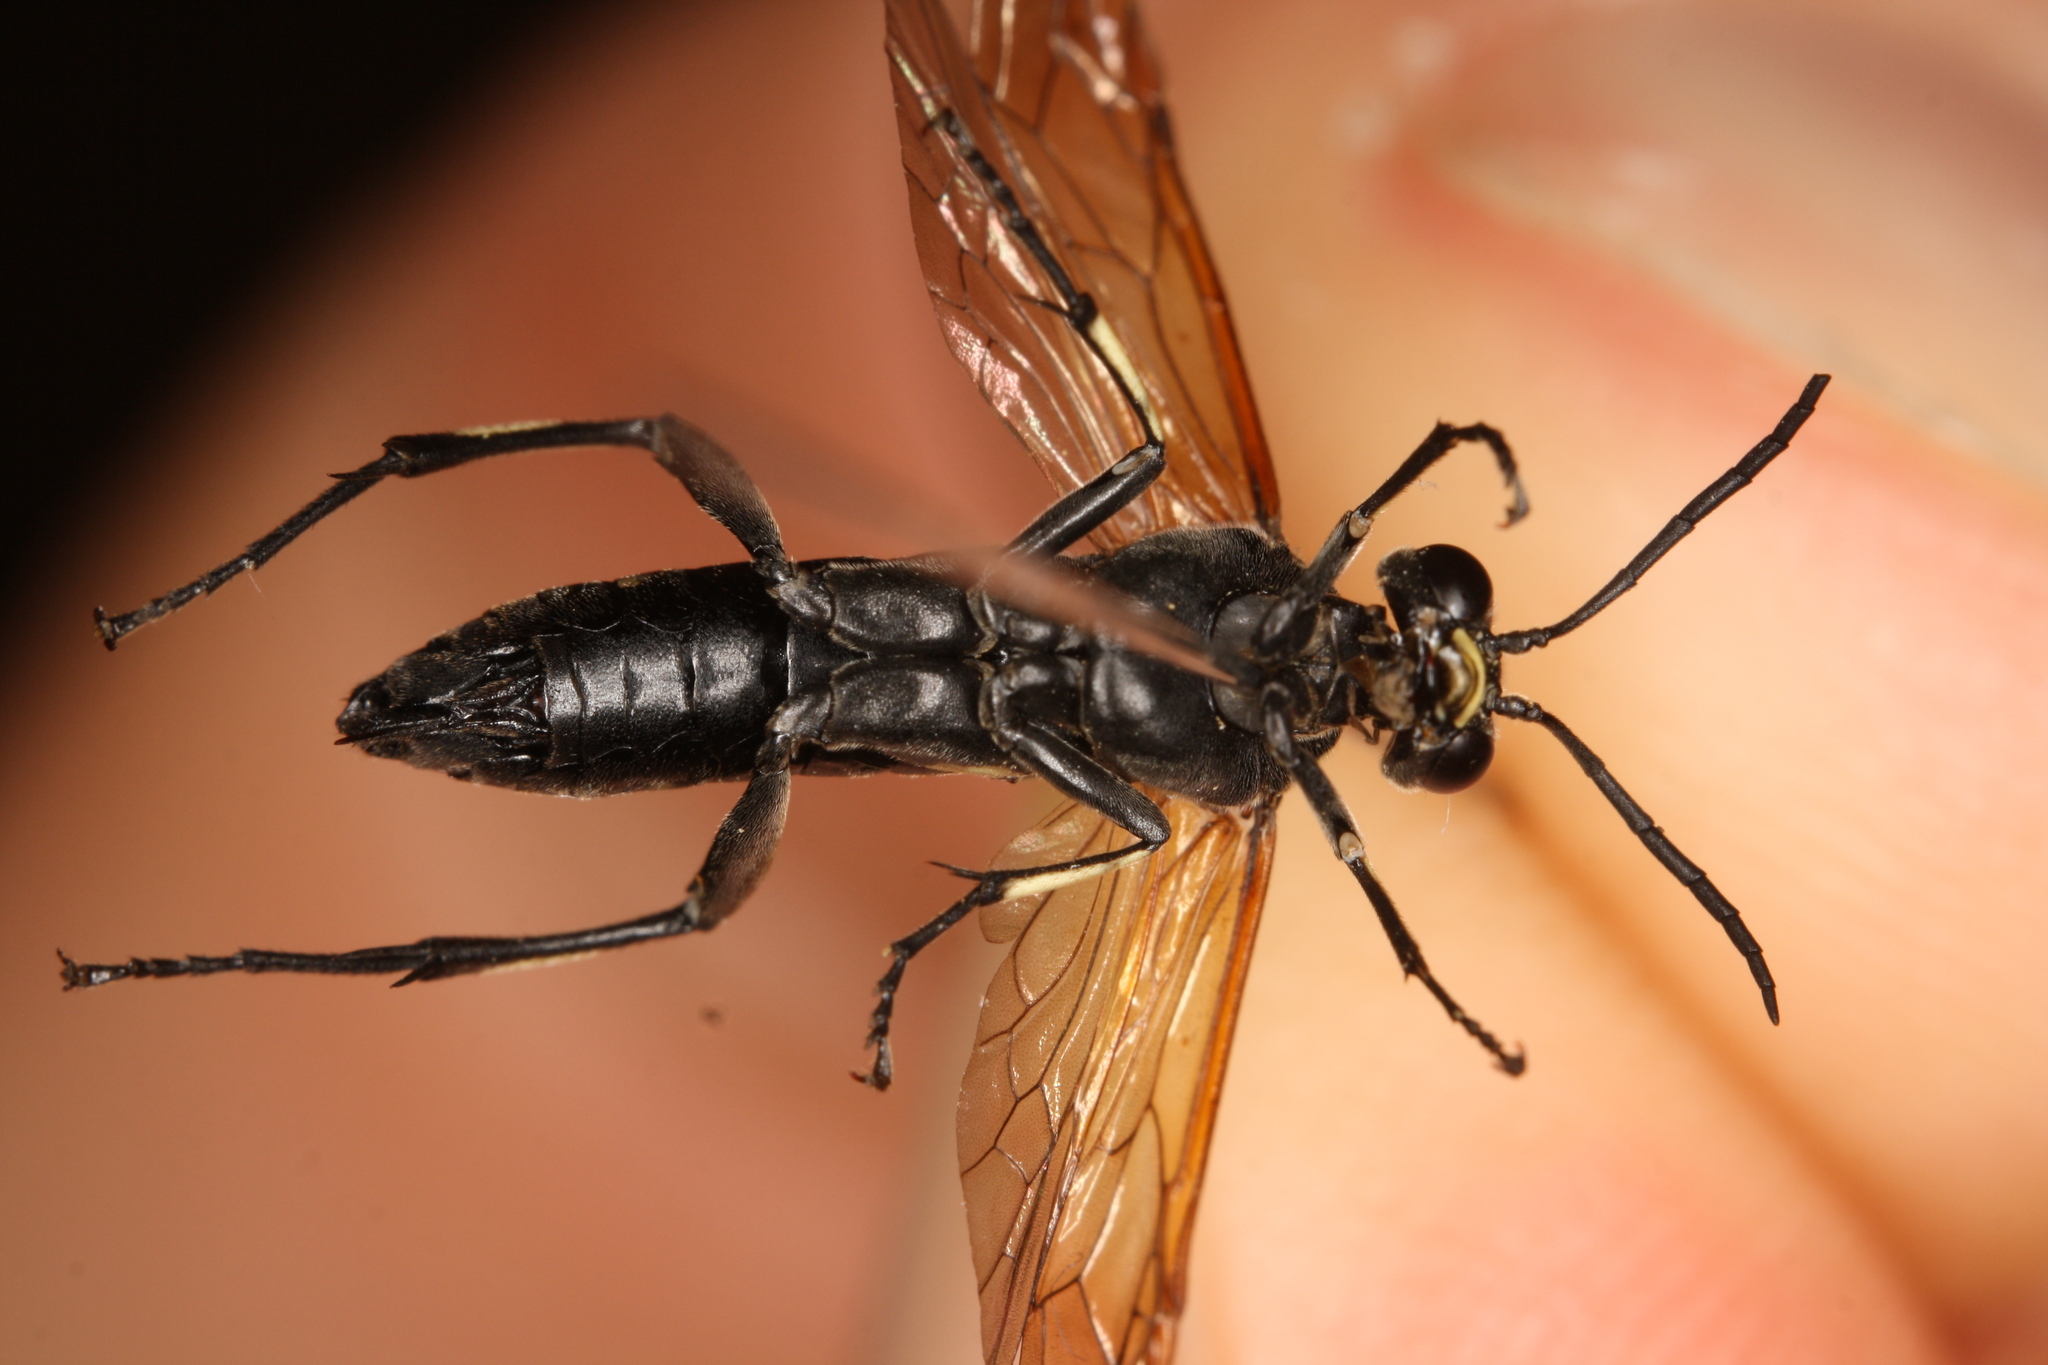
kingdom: Animalia
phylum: Arthropoda
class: Insecta
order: Hymenoptera
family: Tenthredinidae
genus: Macrophya
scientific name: Macrophya duodecimpunctata
